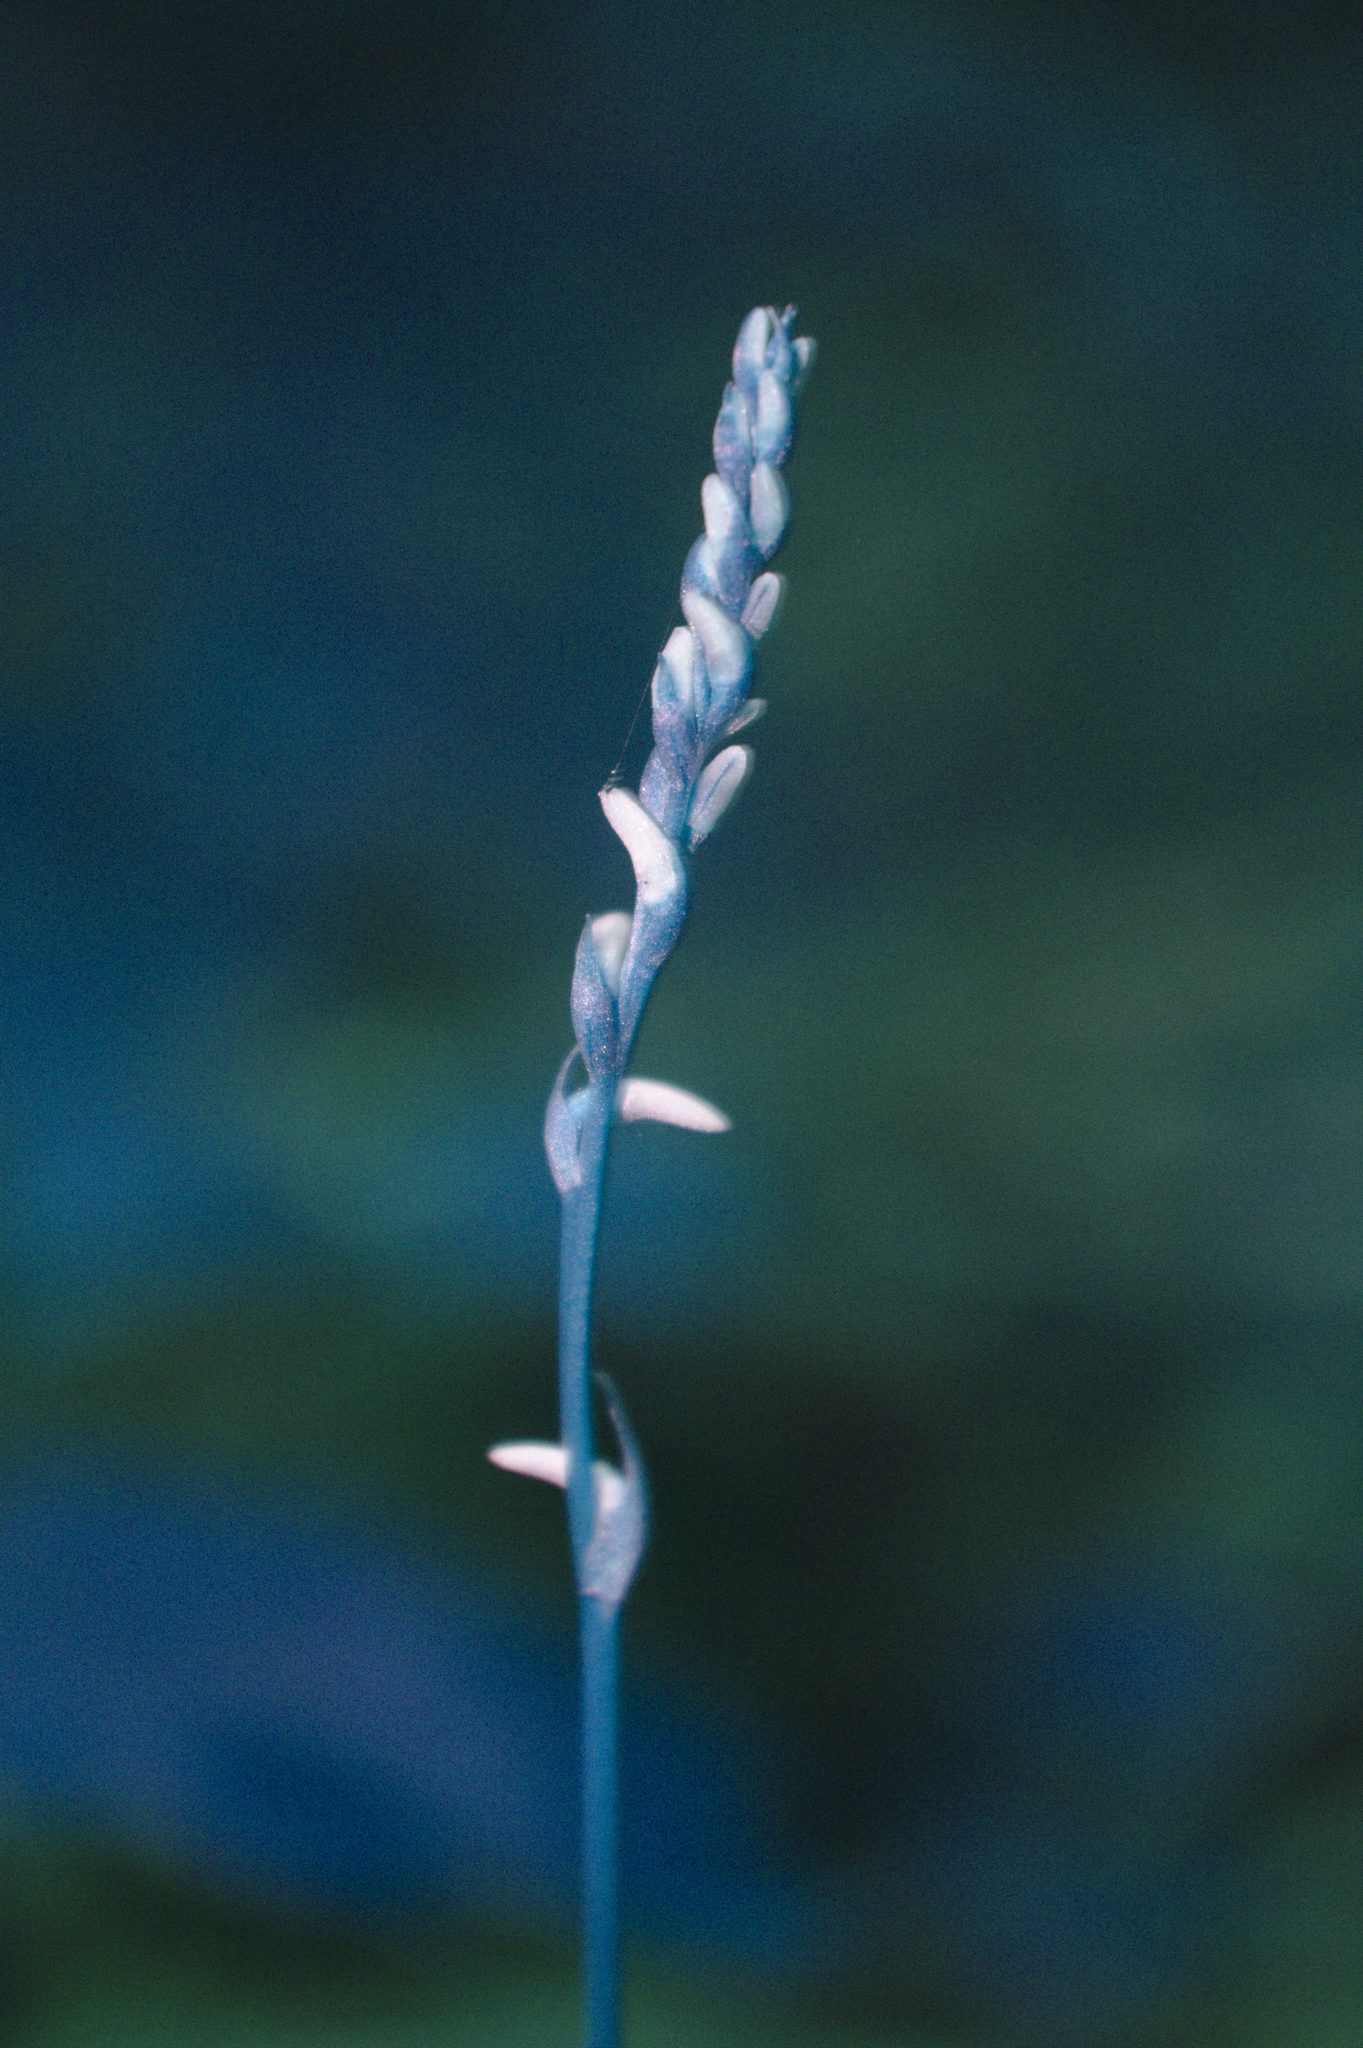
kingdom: Plantae
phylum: Tracheophyta
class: Liliopsida
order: Asparagales
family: Orchidaceae
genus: Spiranthes
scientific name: Spiranthes lacera
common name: Northern slender ladies'-tresses
